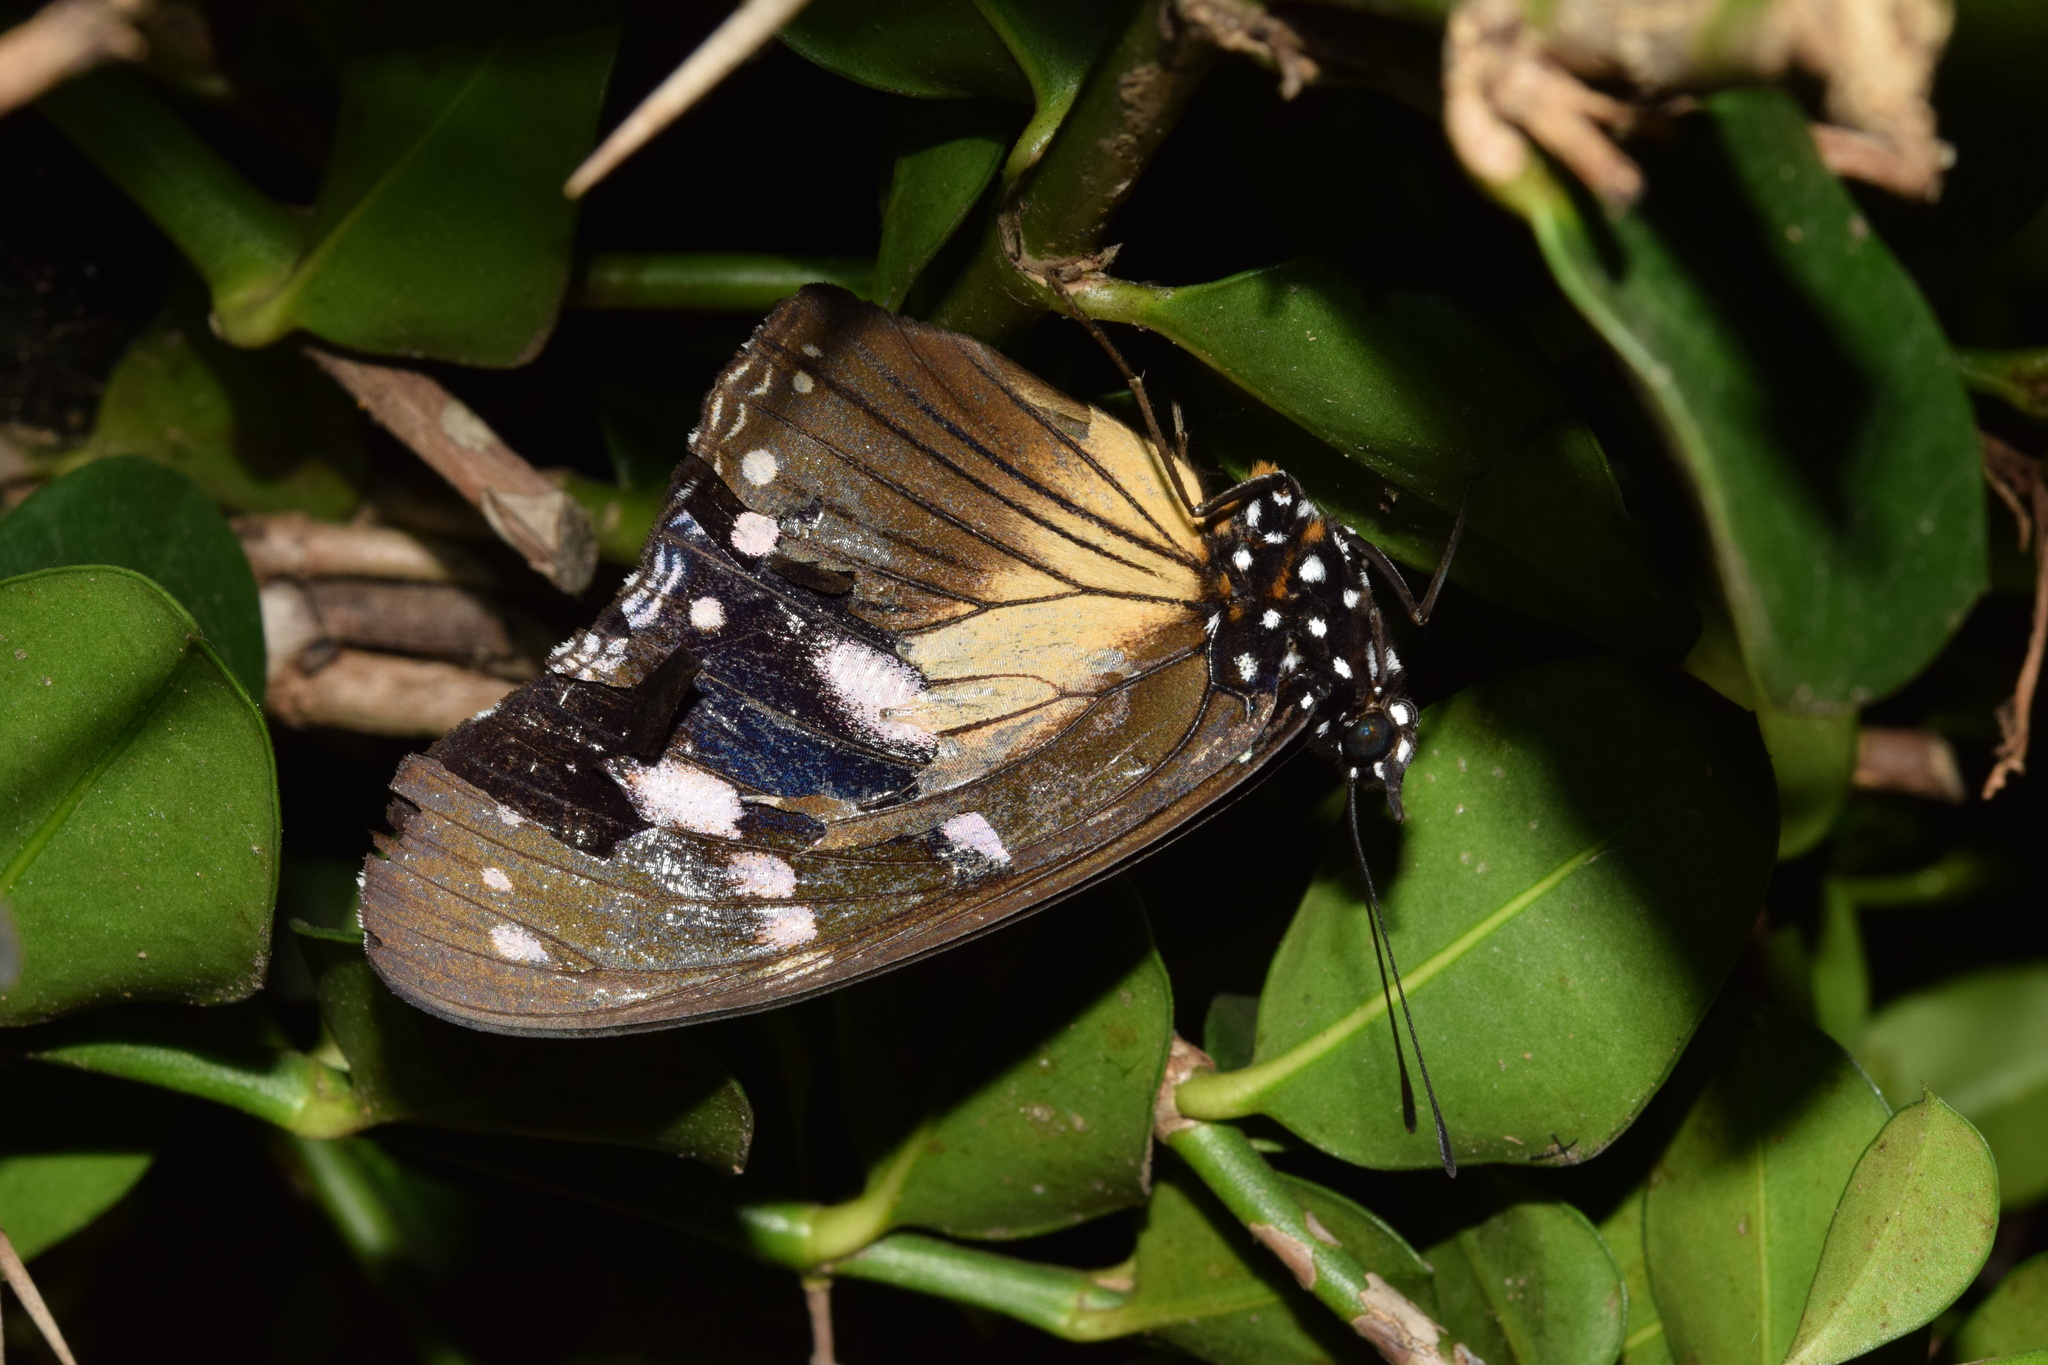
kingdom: Animalia
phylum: Arthropoda
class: Insecta
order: Lepidoptera
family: Nymphalidae
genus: Hypolimnas
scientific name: Hypolimnas dubius
